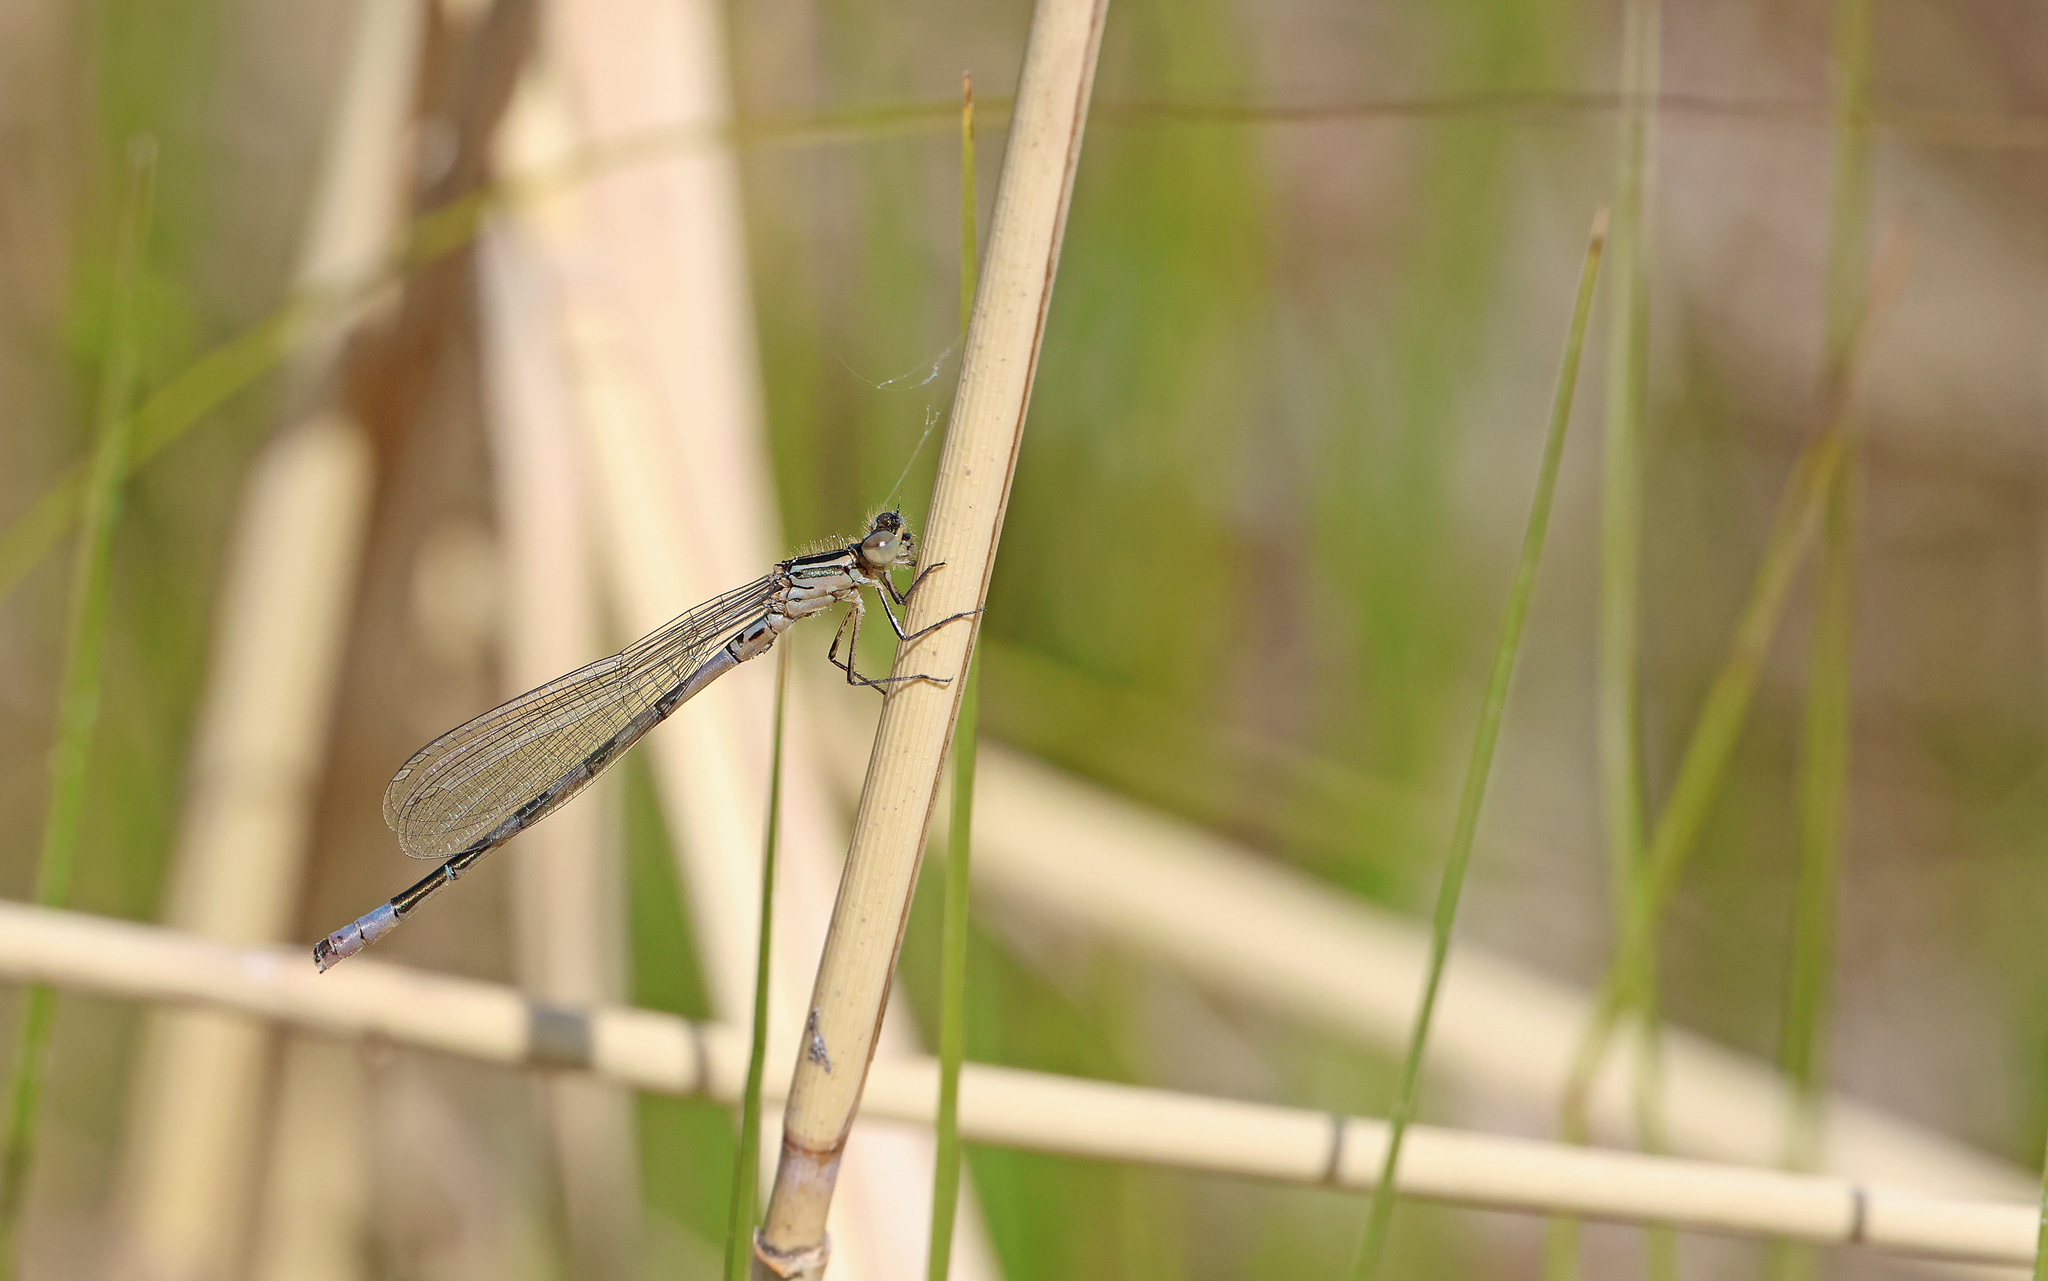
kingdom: Animalia
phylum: Arthropoda
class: Insecta
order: Odonata
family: Coenagrionidae
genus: Coenagrion
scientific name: Coenagrion hastulatum
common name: Spearhead bluet
